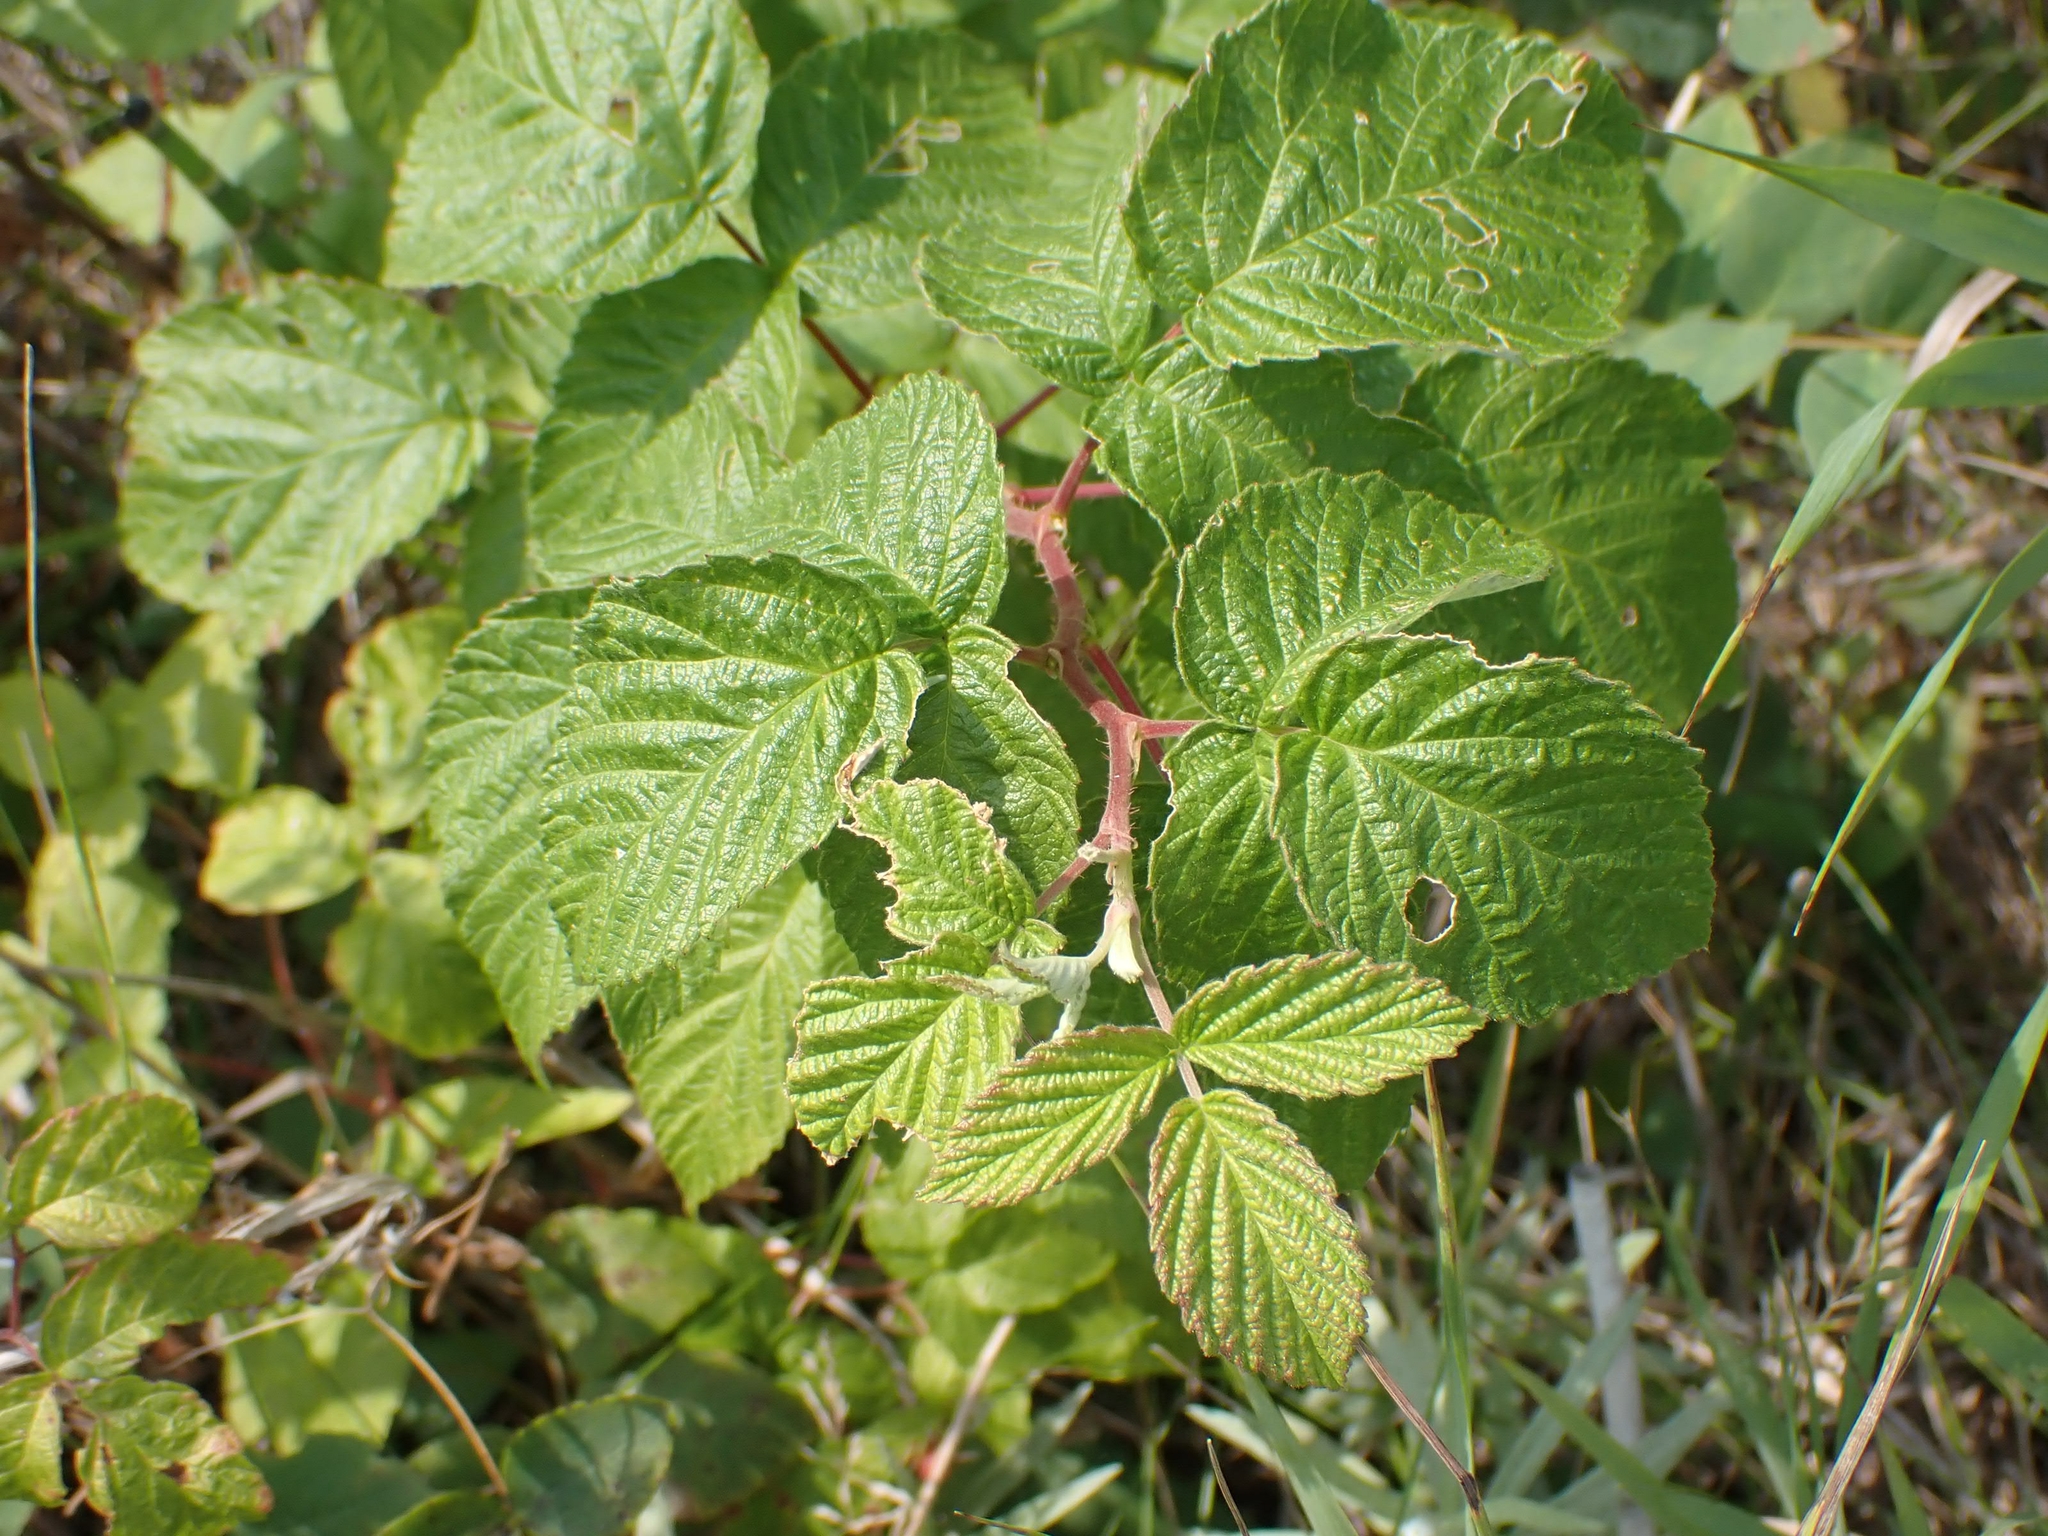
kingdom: Plantae
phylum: Tracheophyta
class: Magnoliopsida
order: Rosales
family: Rosaceae
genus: Rubus
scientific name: Rubus idaeus
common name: Raspberry
